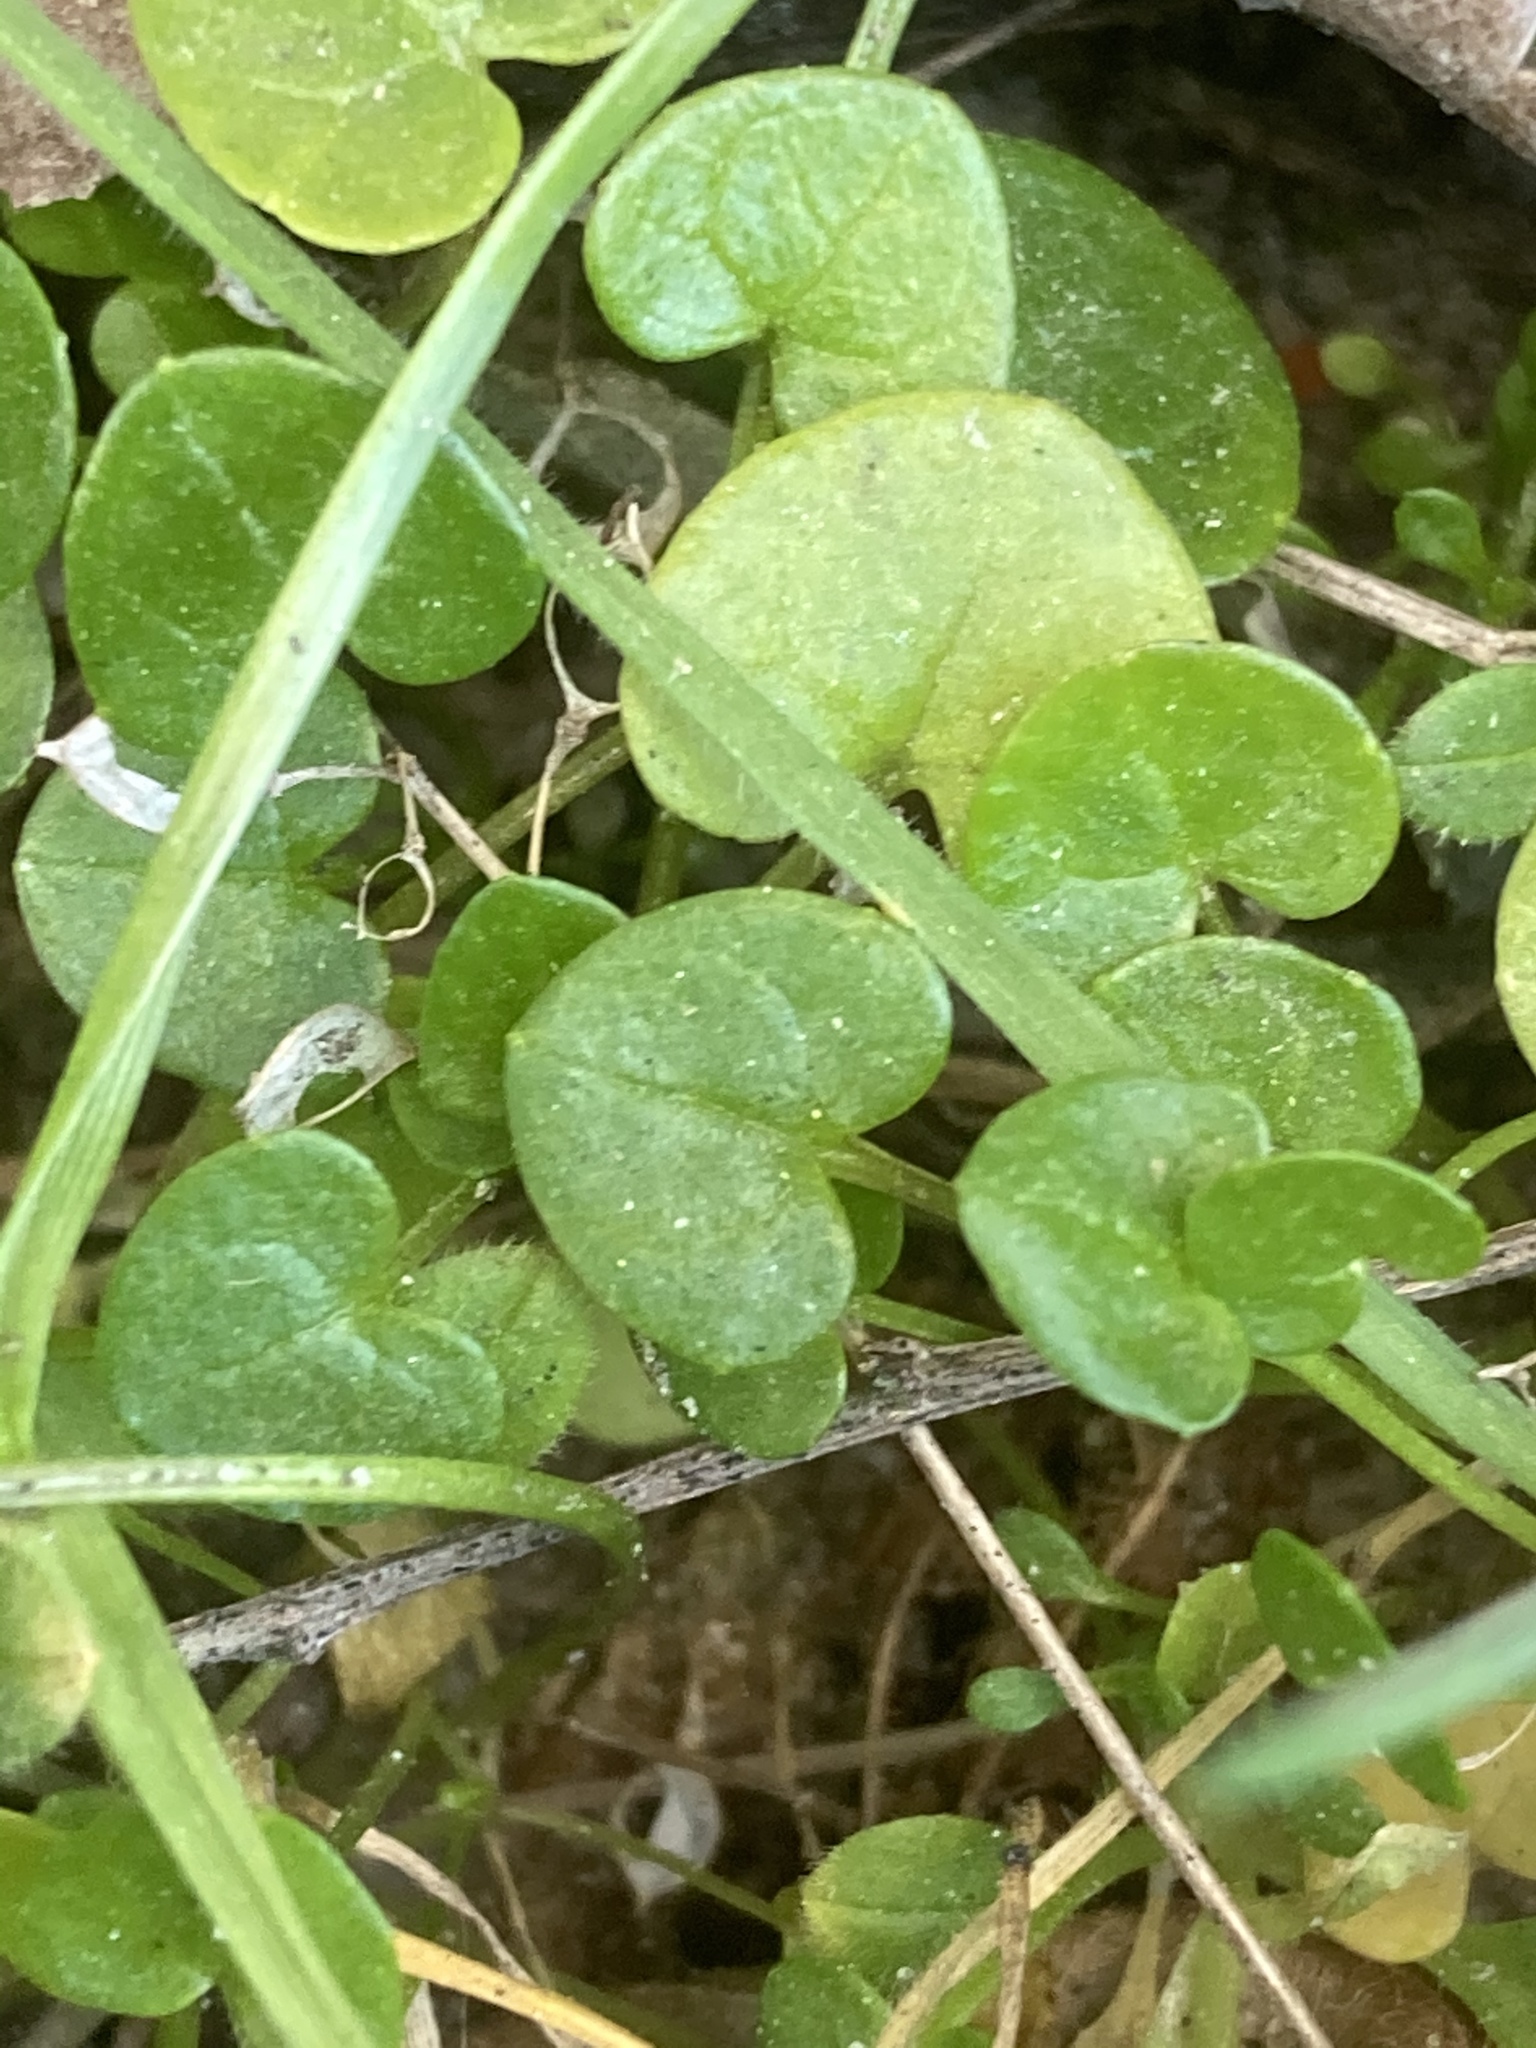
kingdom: Plantae
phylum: Tracheophyta
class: Magnoliopsida
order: Brassicales
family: Brassicaceae
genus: Cochlearia
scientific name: Cochlearia officinalis
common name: Scurvy-grass
